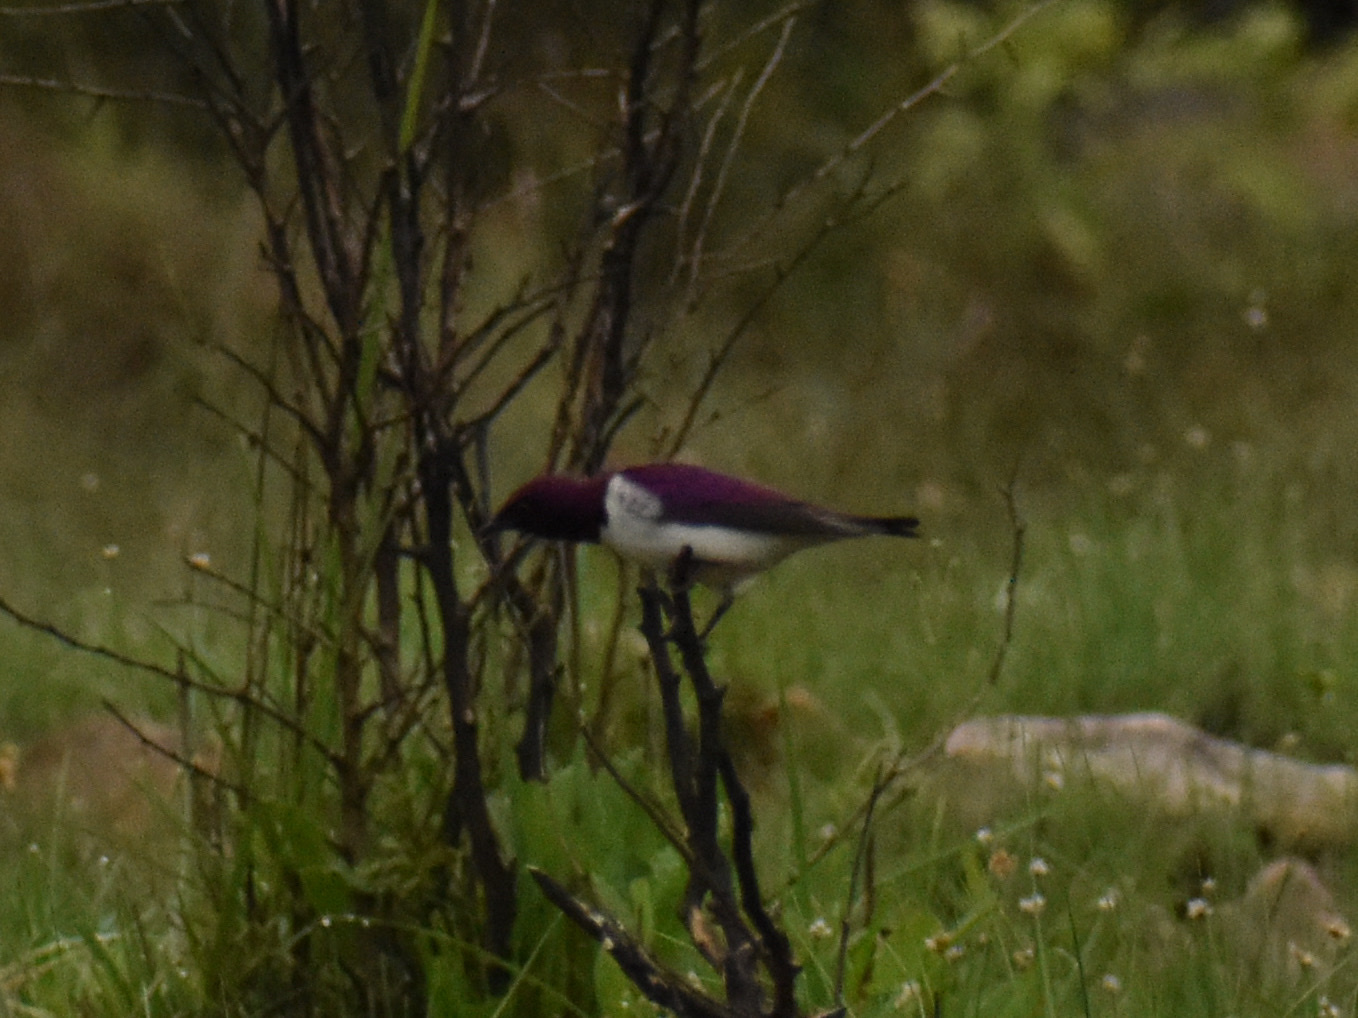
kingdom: Animalia
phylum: Chordata
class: Aves
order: Passeriformes
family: Sturnidae
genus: Cinnyricinclus
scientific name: Cinnyricinclus leucogaster
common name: Violet-backed starling
